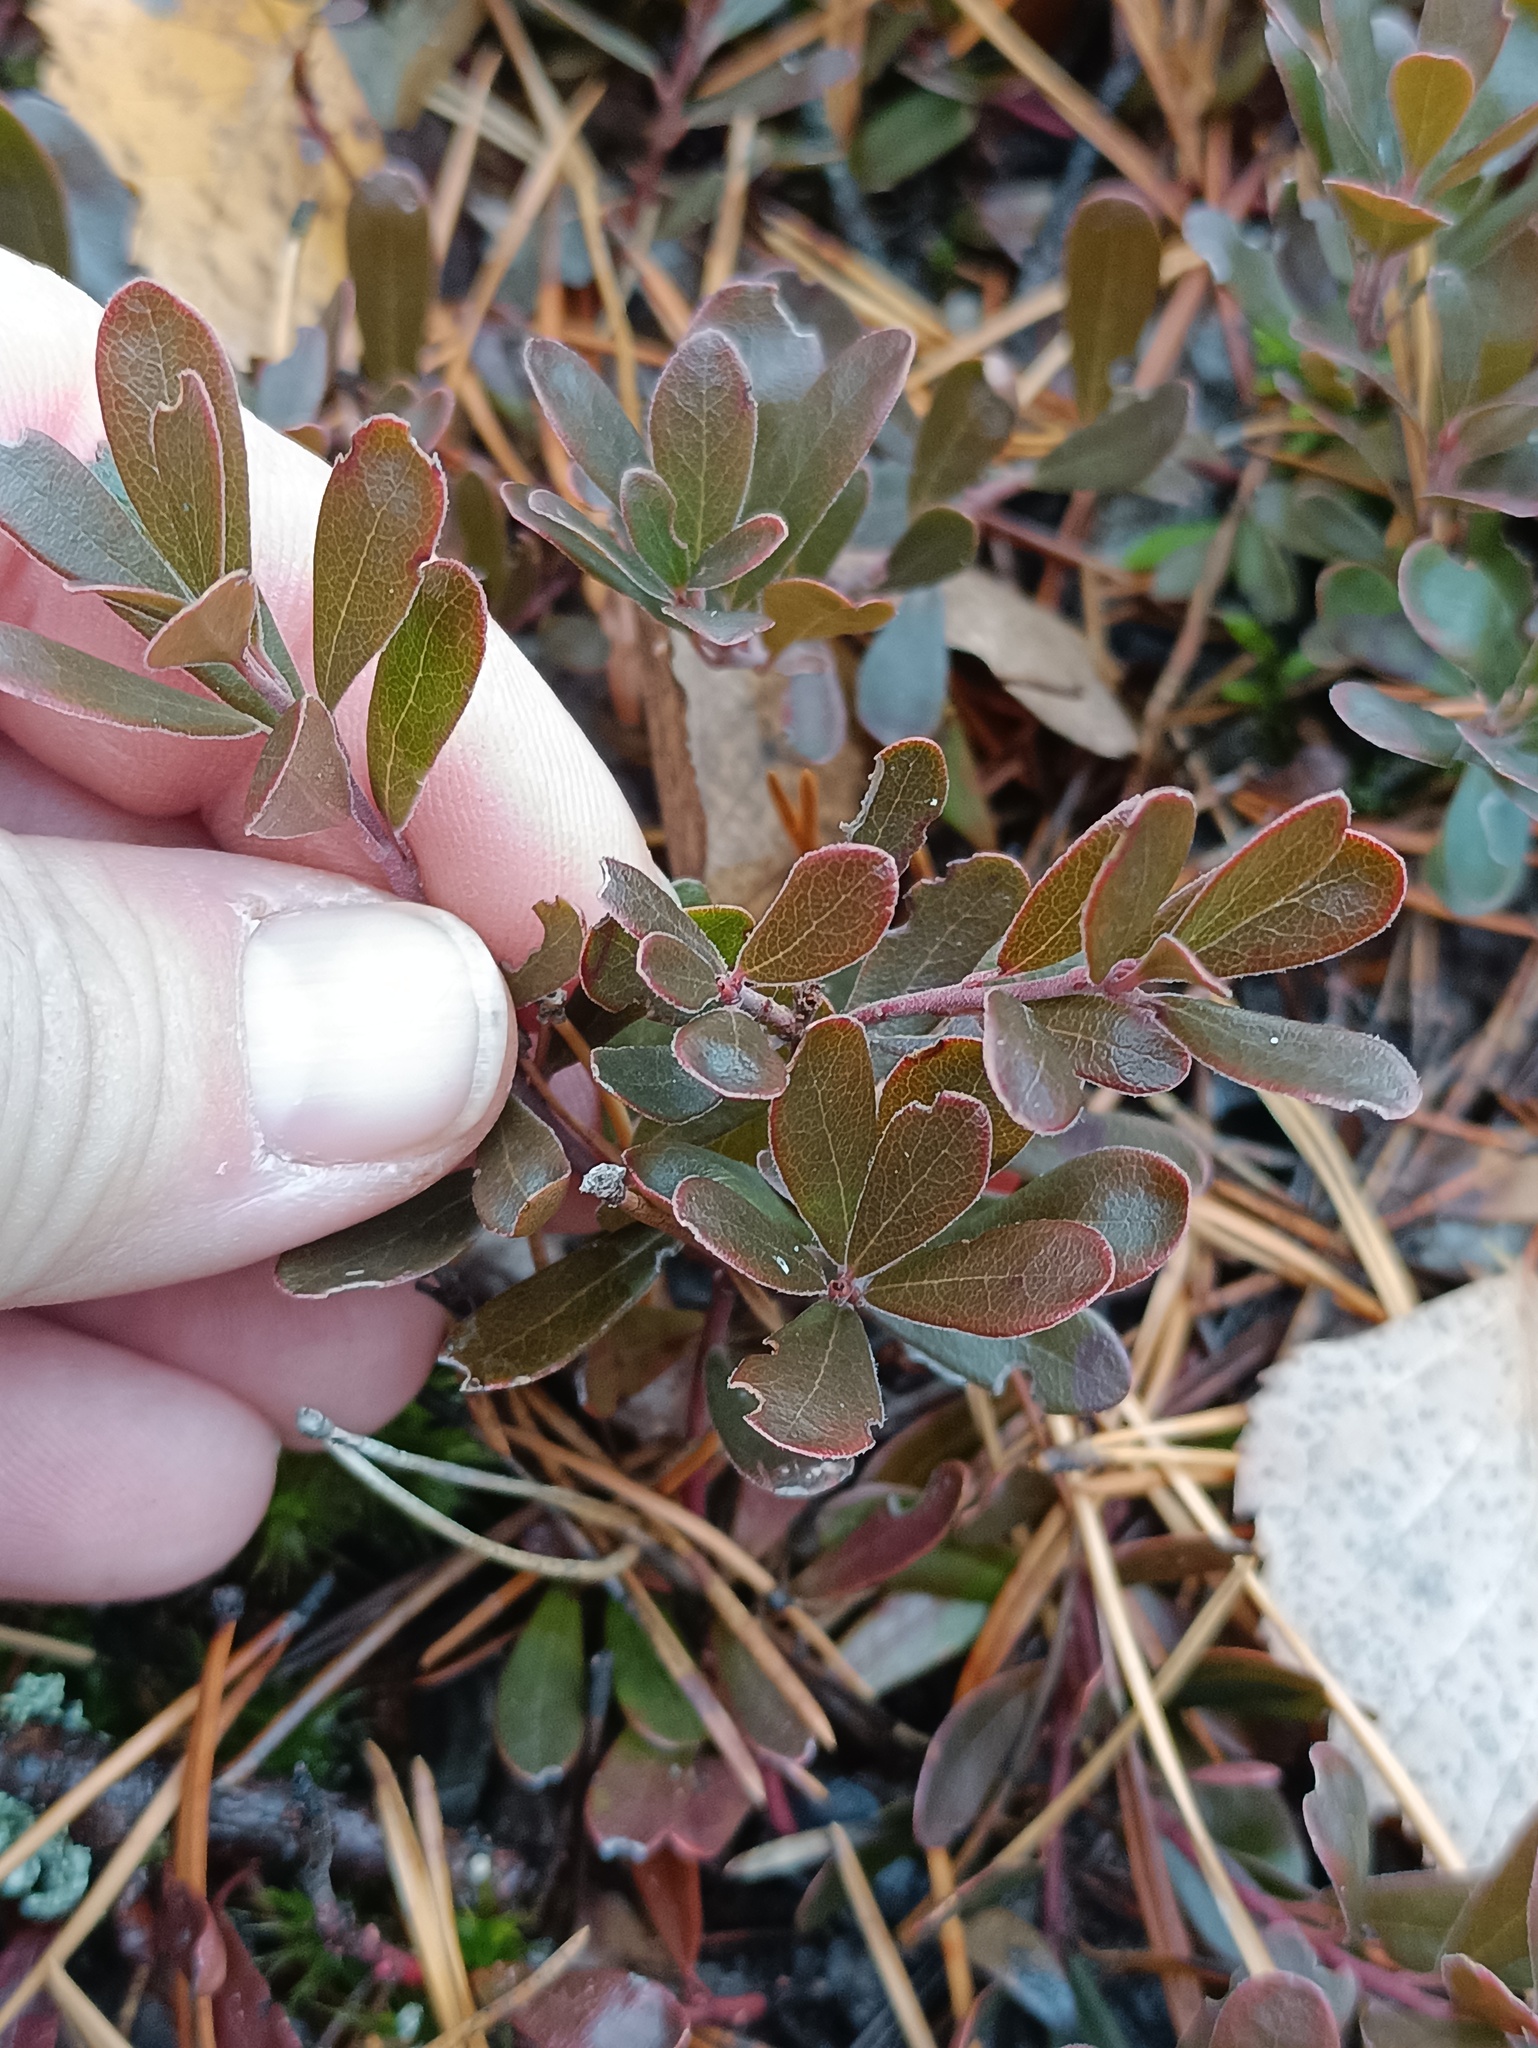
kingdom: Plantae
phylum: Tracheophyta
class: Magnoliopsida
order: Ericales
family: Ericaceae
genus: Arctostaphylos
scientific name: Arctostaphylos uva-ursi
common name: Bearberry
